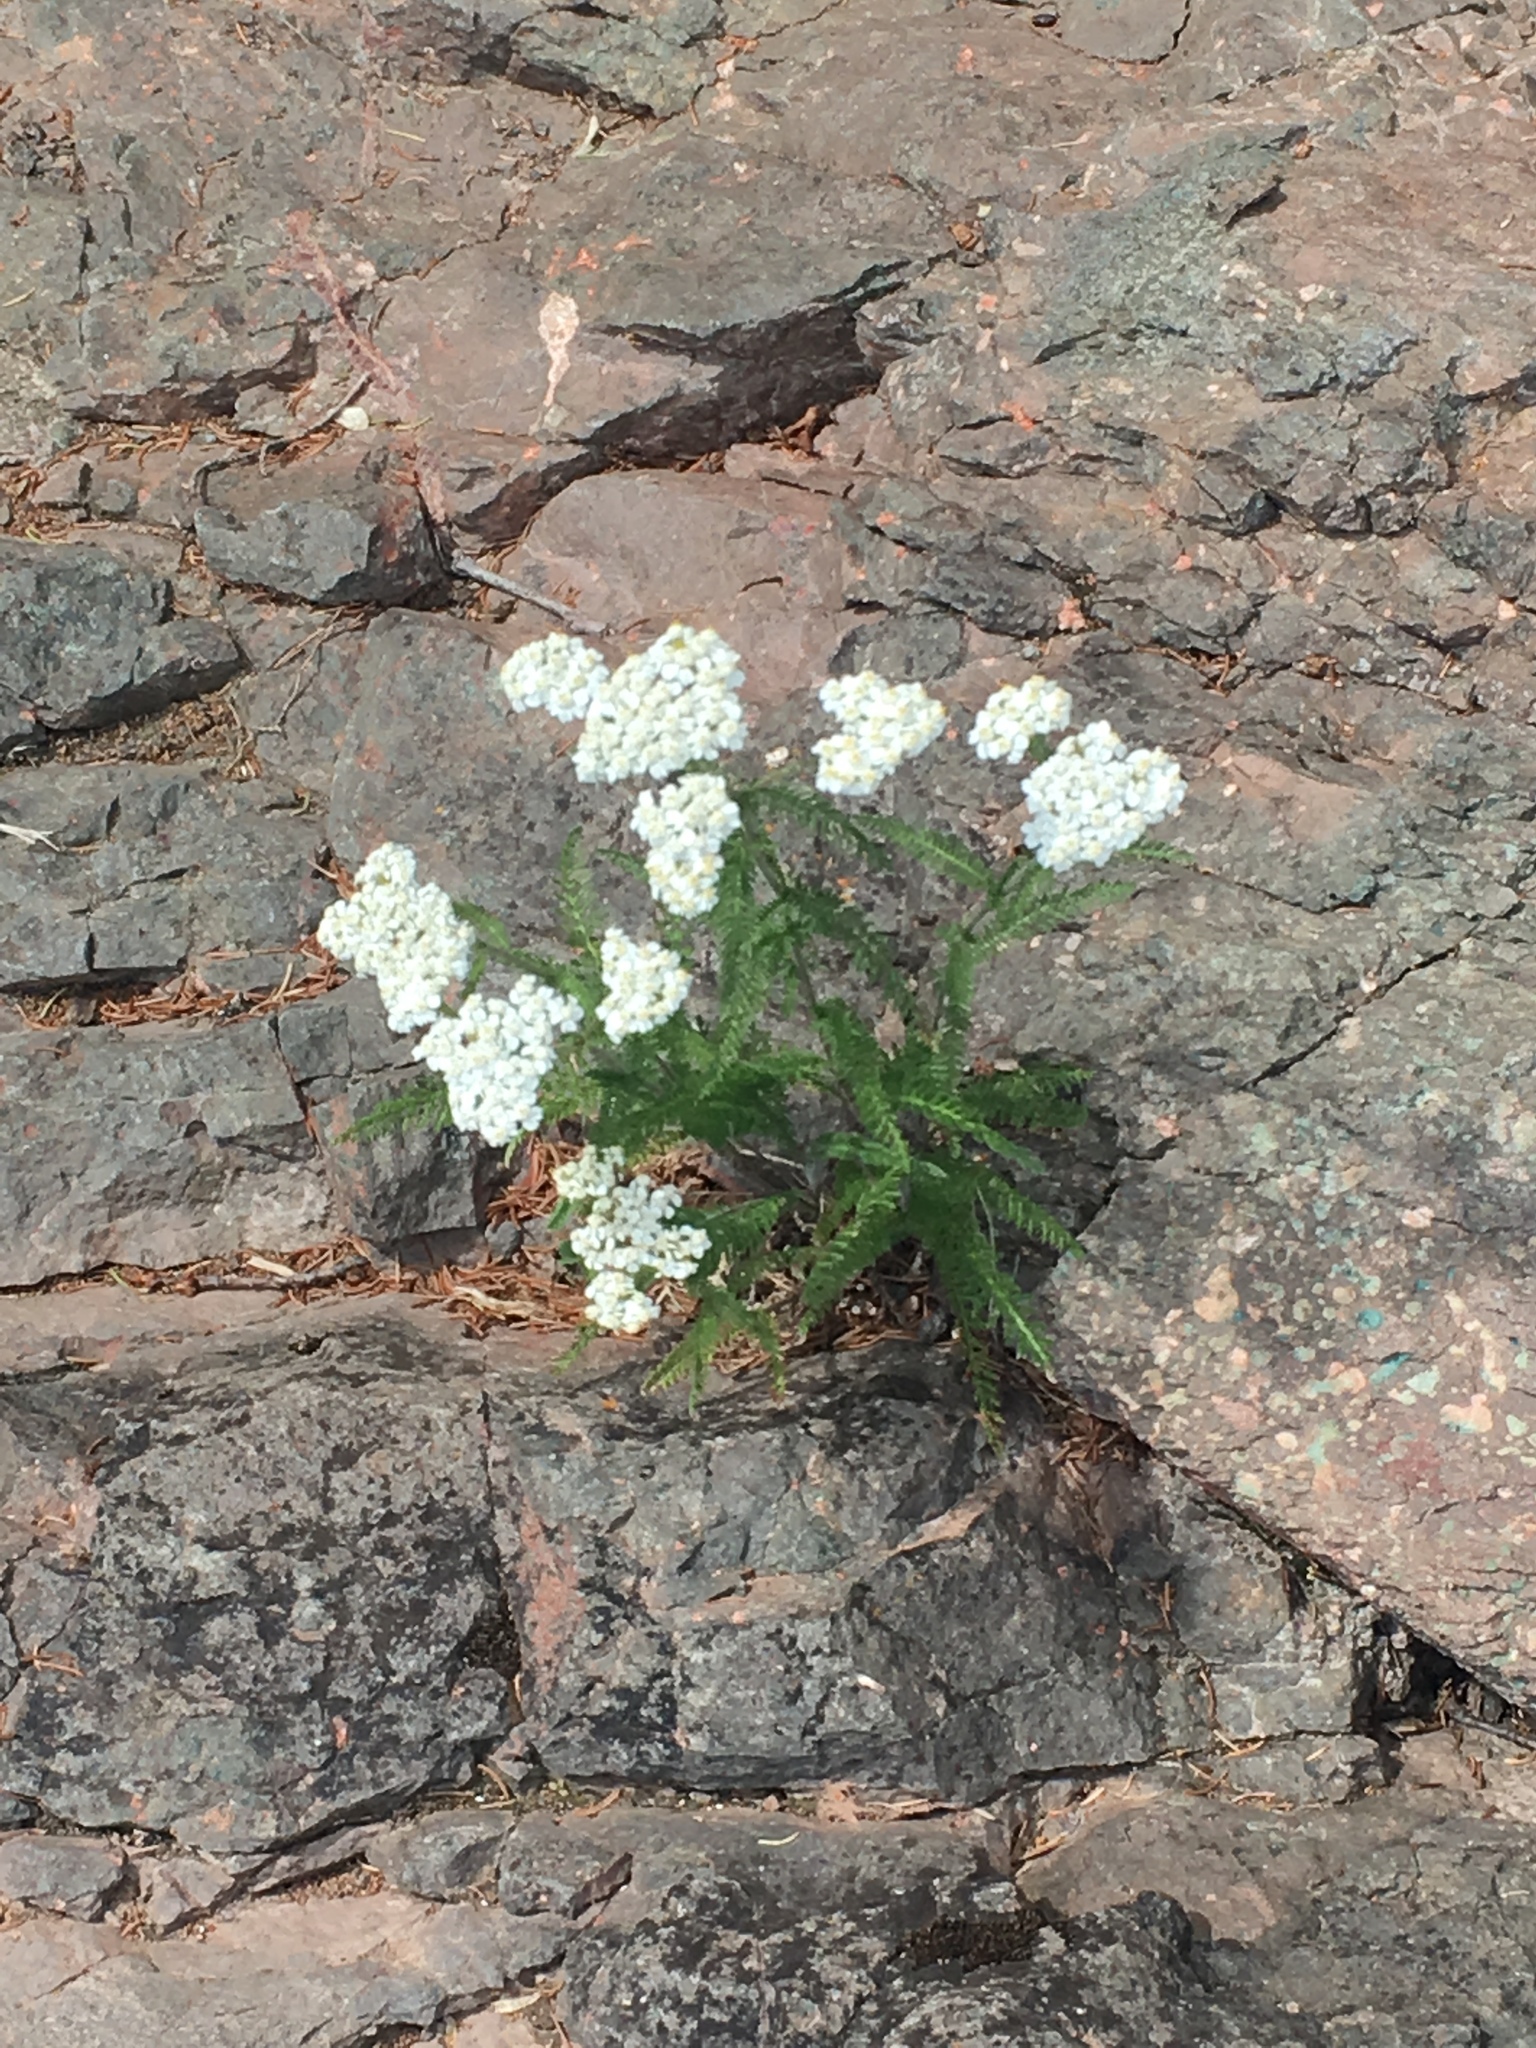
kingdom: Plantae
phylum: Tracheophyta
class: Magnoliopsida
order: Asterales
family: Asteraceae
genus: Achillea
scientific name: Achillea millefolium
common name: Yarrow
